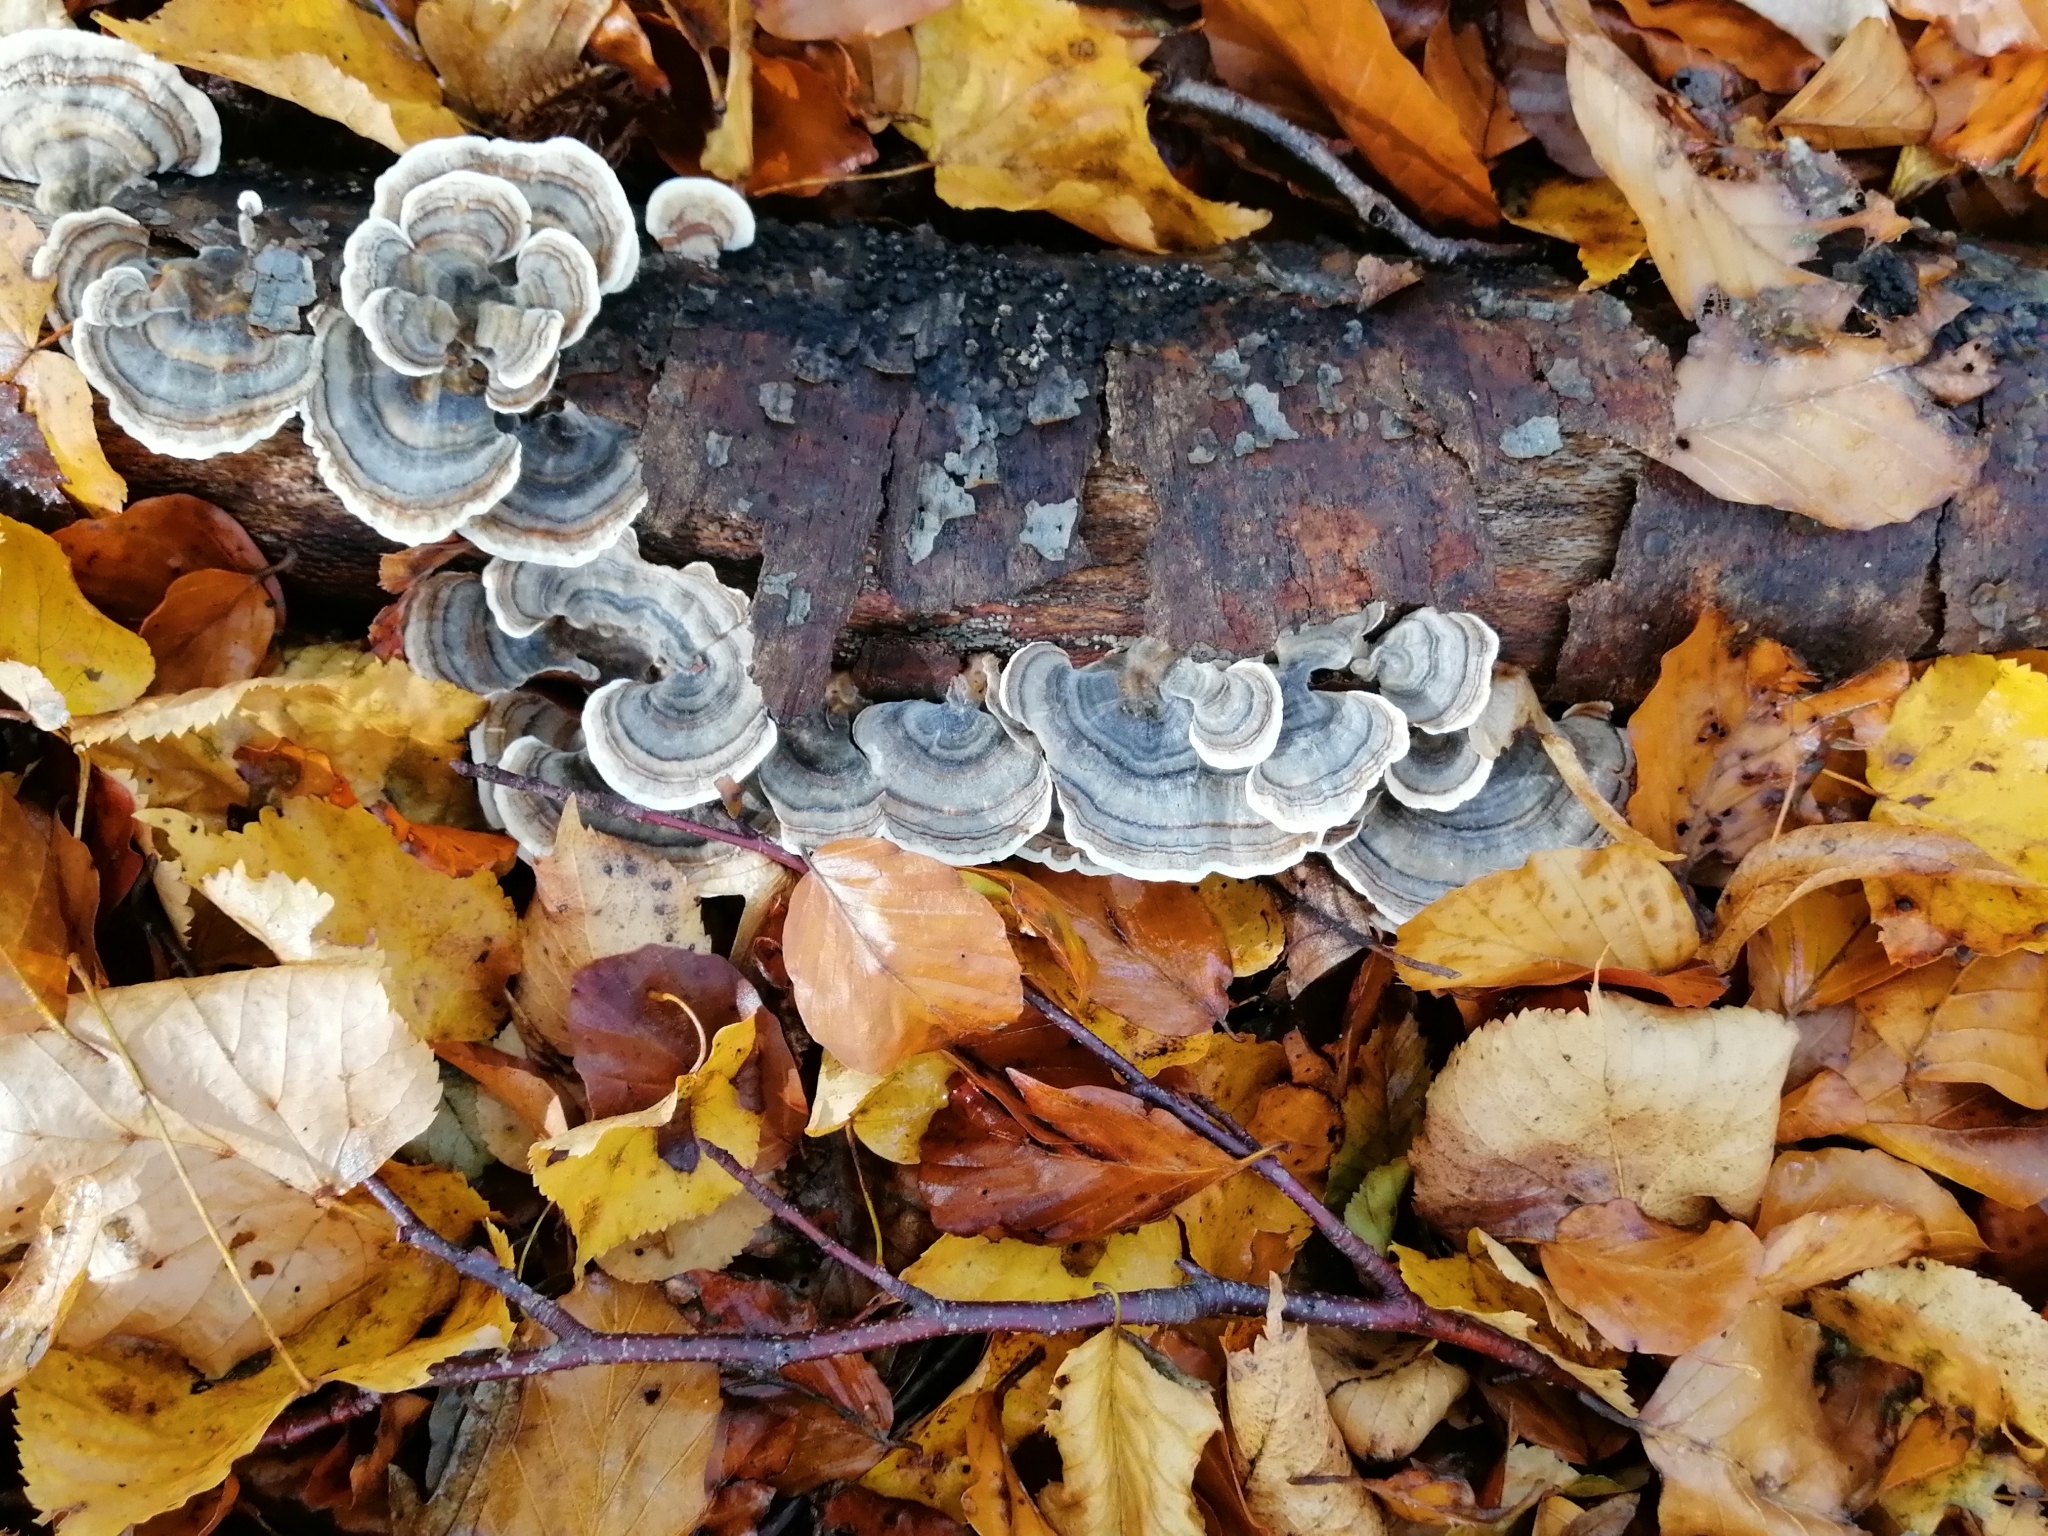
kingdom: Fungi
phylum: Basidiomycota
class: Agaricomycetes
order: Polyporales
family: Polyporaceae
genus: Trametes
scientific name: Trametes versicolor
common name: Turkeytail
